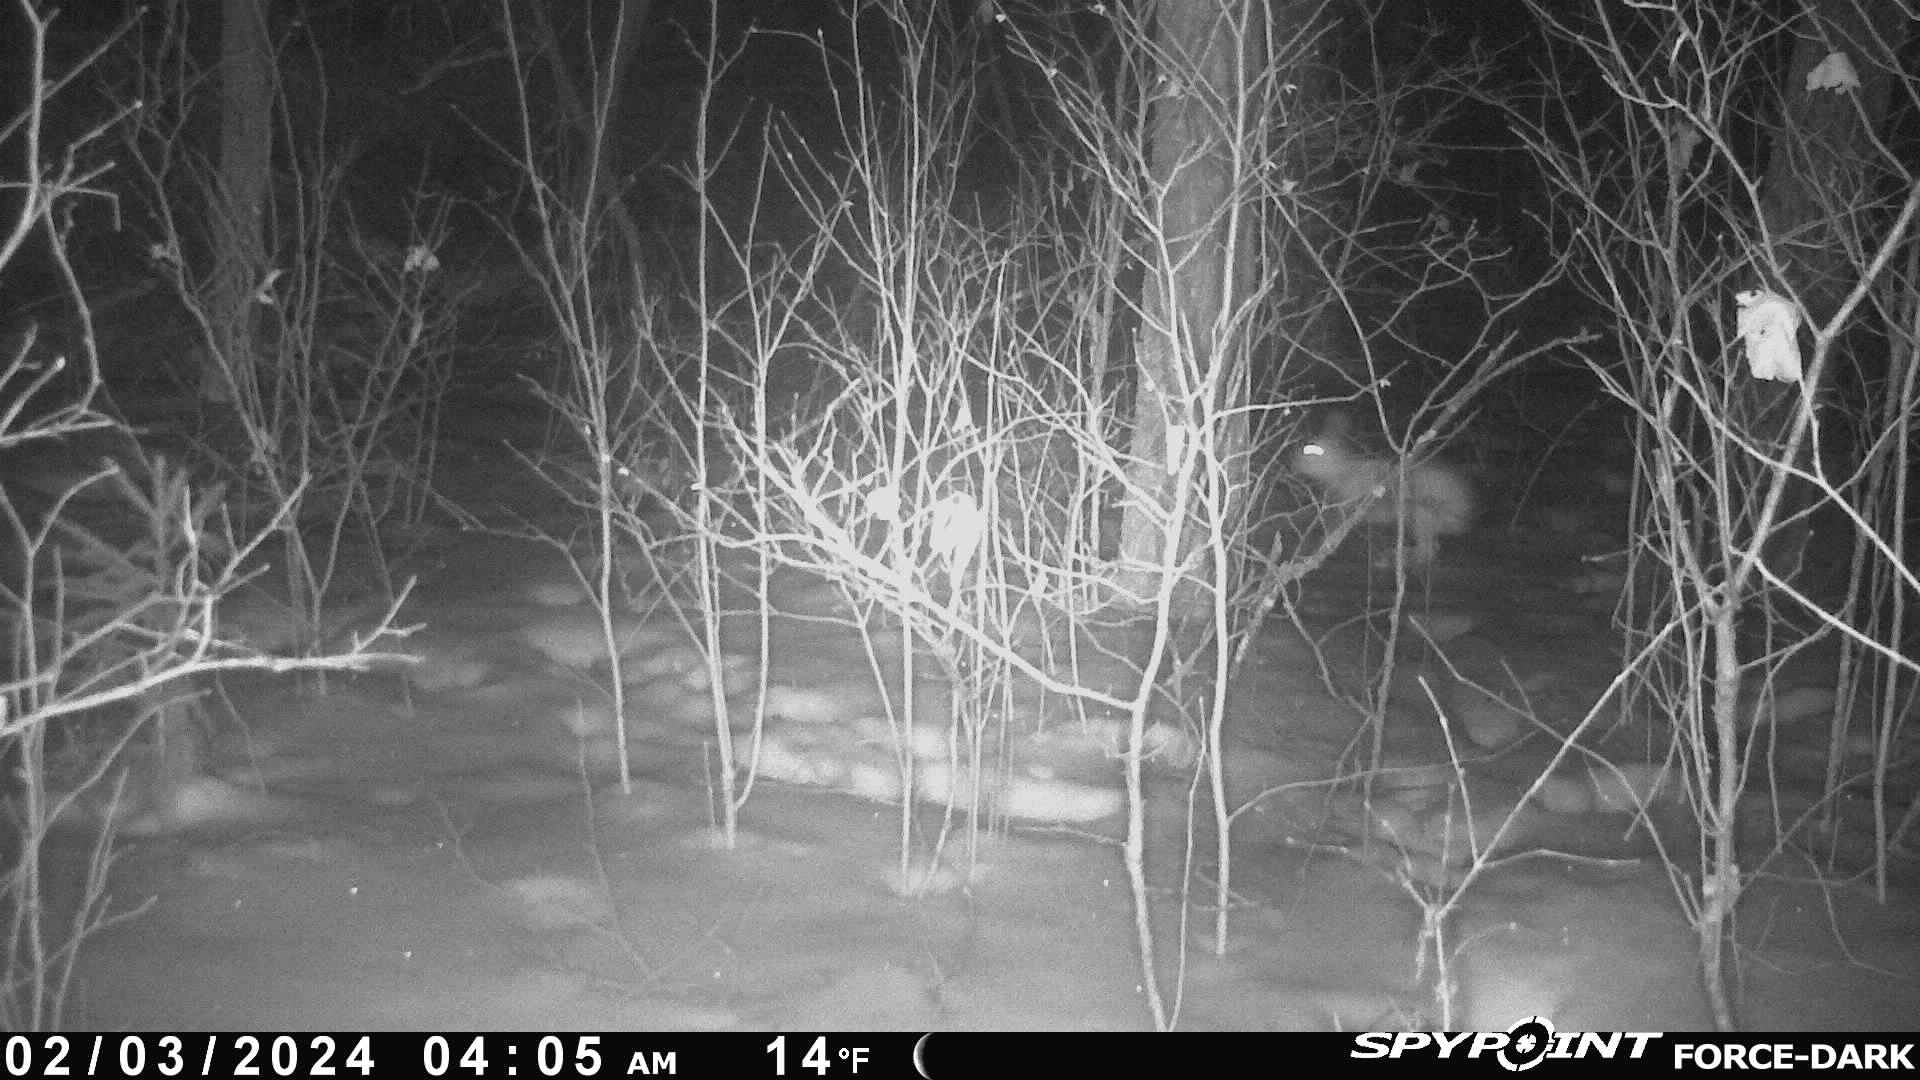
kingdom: Animalia
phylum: Chordata
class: Mammalia
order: Lagomorpha
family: Leporidae
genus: Lepus
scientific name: Lepus americanus
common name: Snowshoe hare
